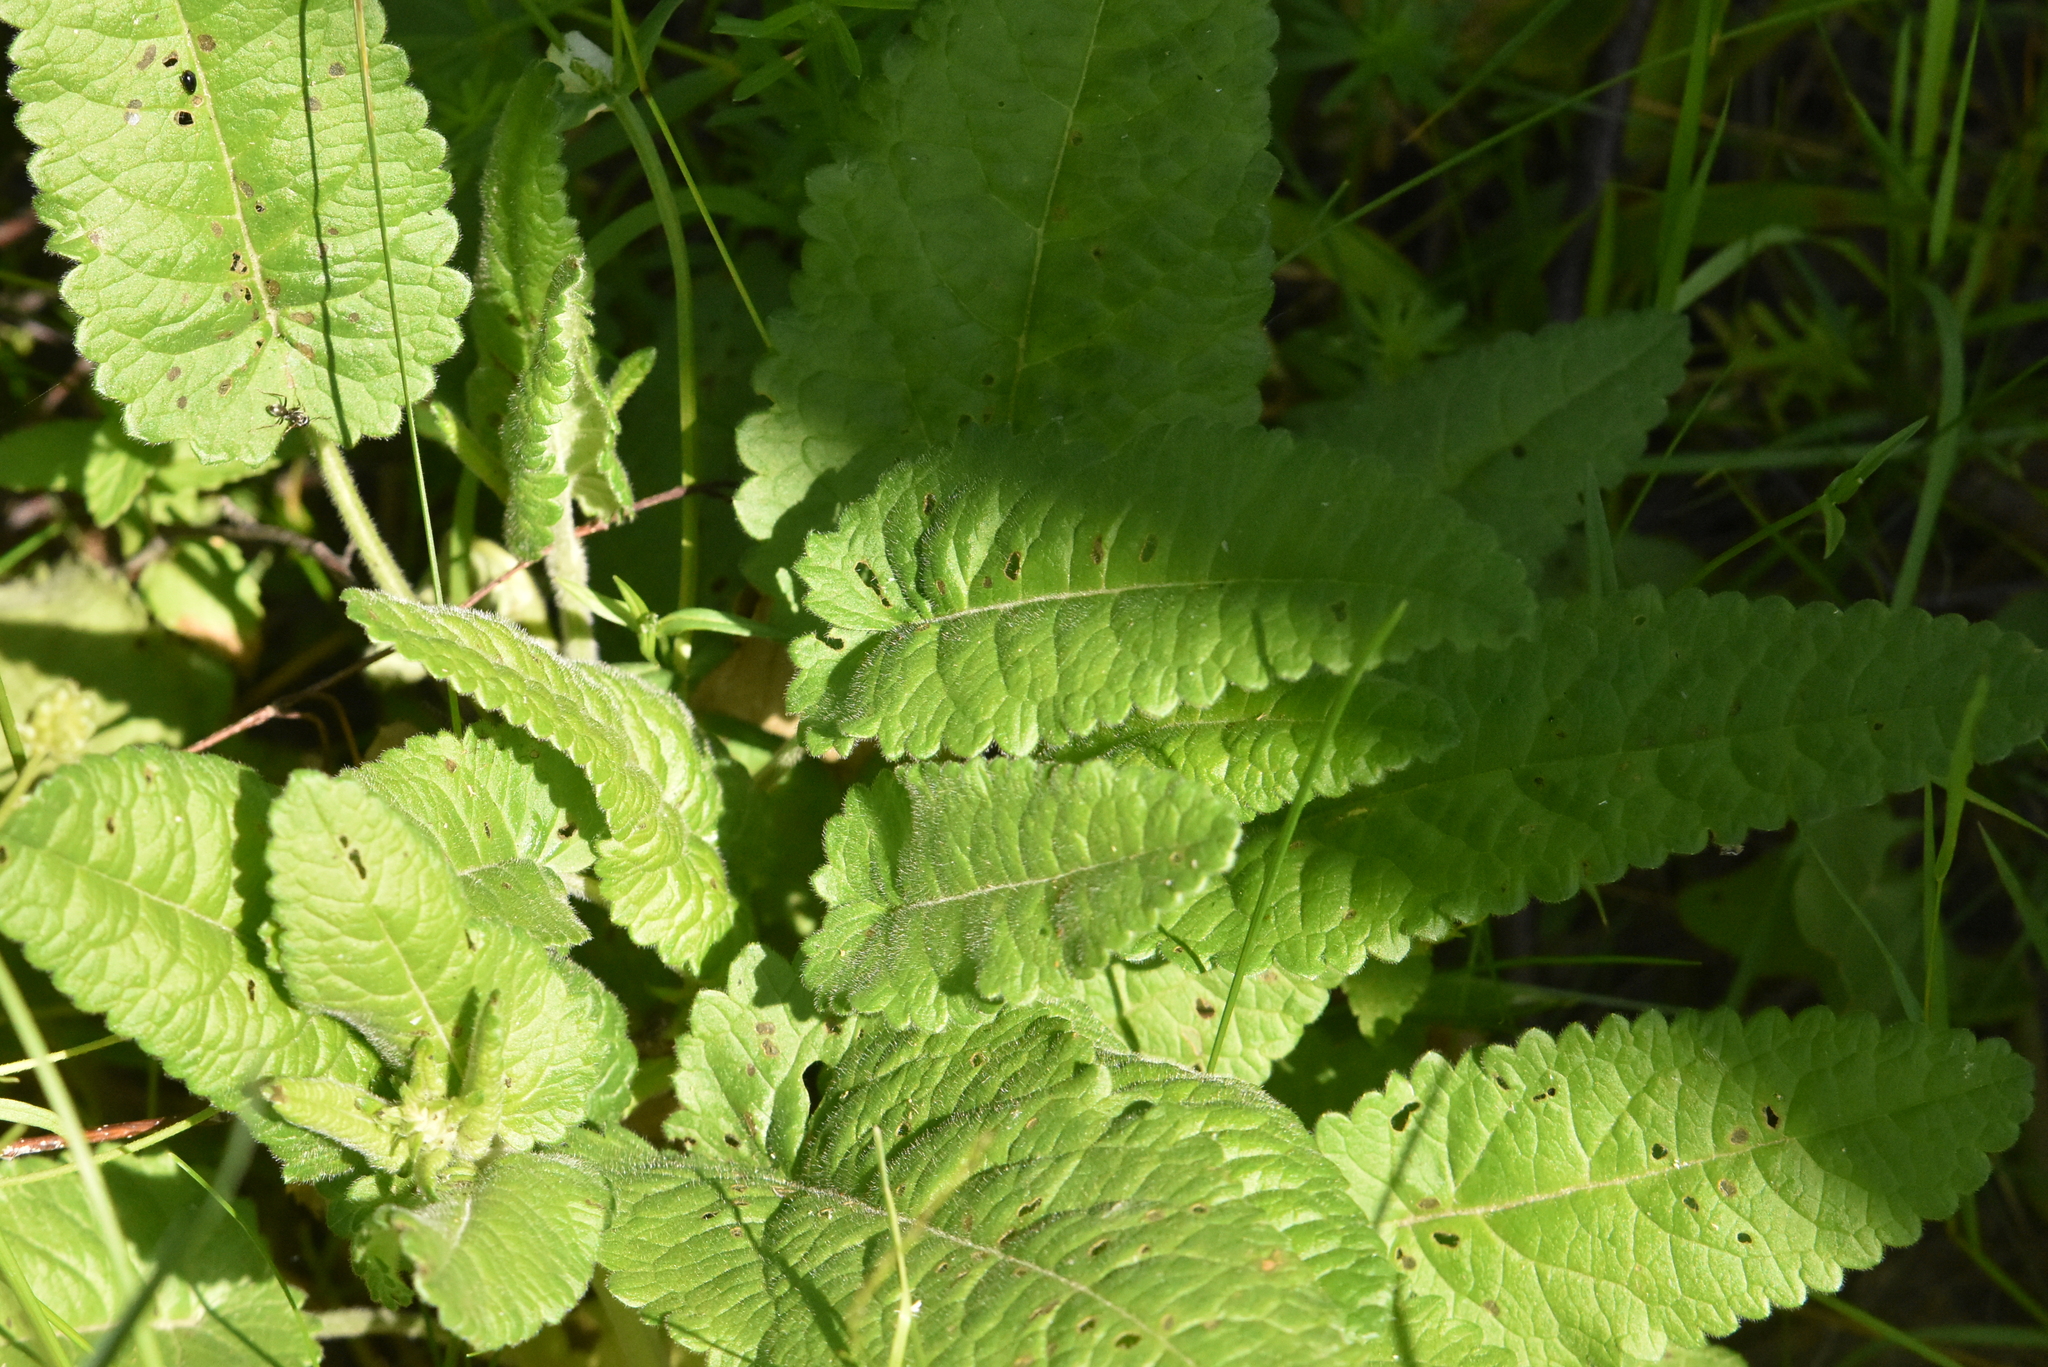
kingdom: Plantae
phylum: Tracheophyta
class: Magnoliopsida
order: Lamiales
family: Lamiaceae
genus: Betonica
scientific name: Betonica officinalis
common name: Bishop's-wort
